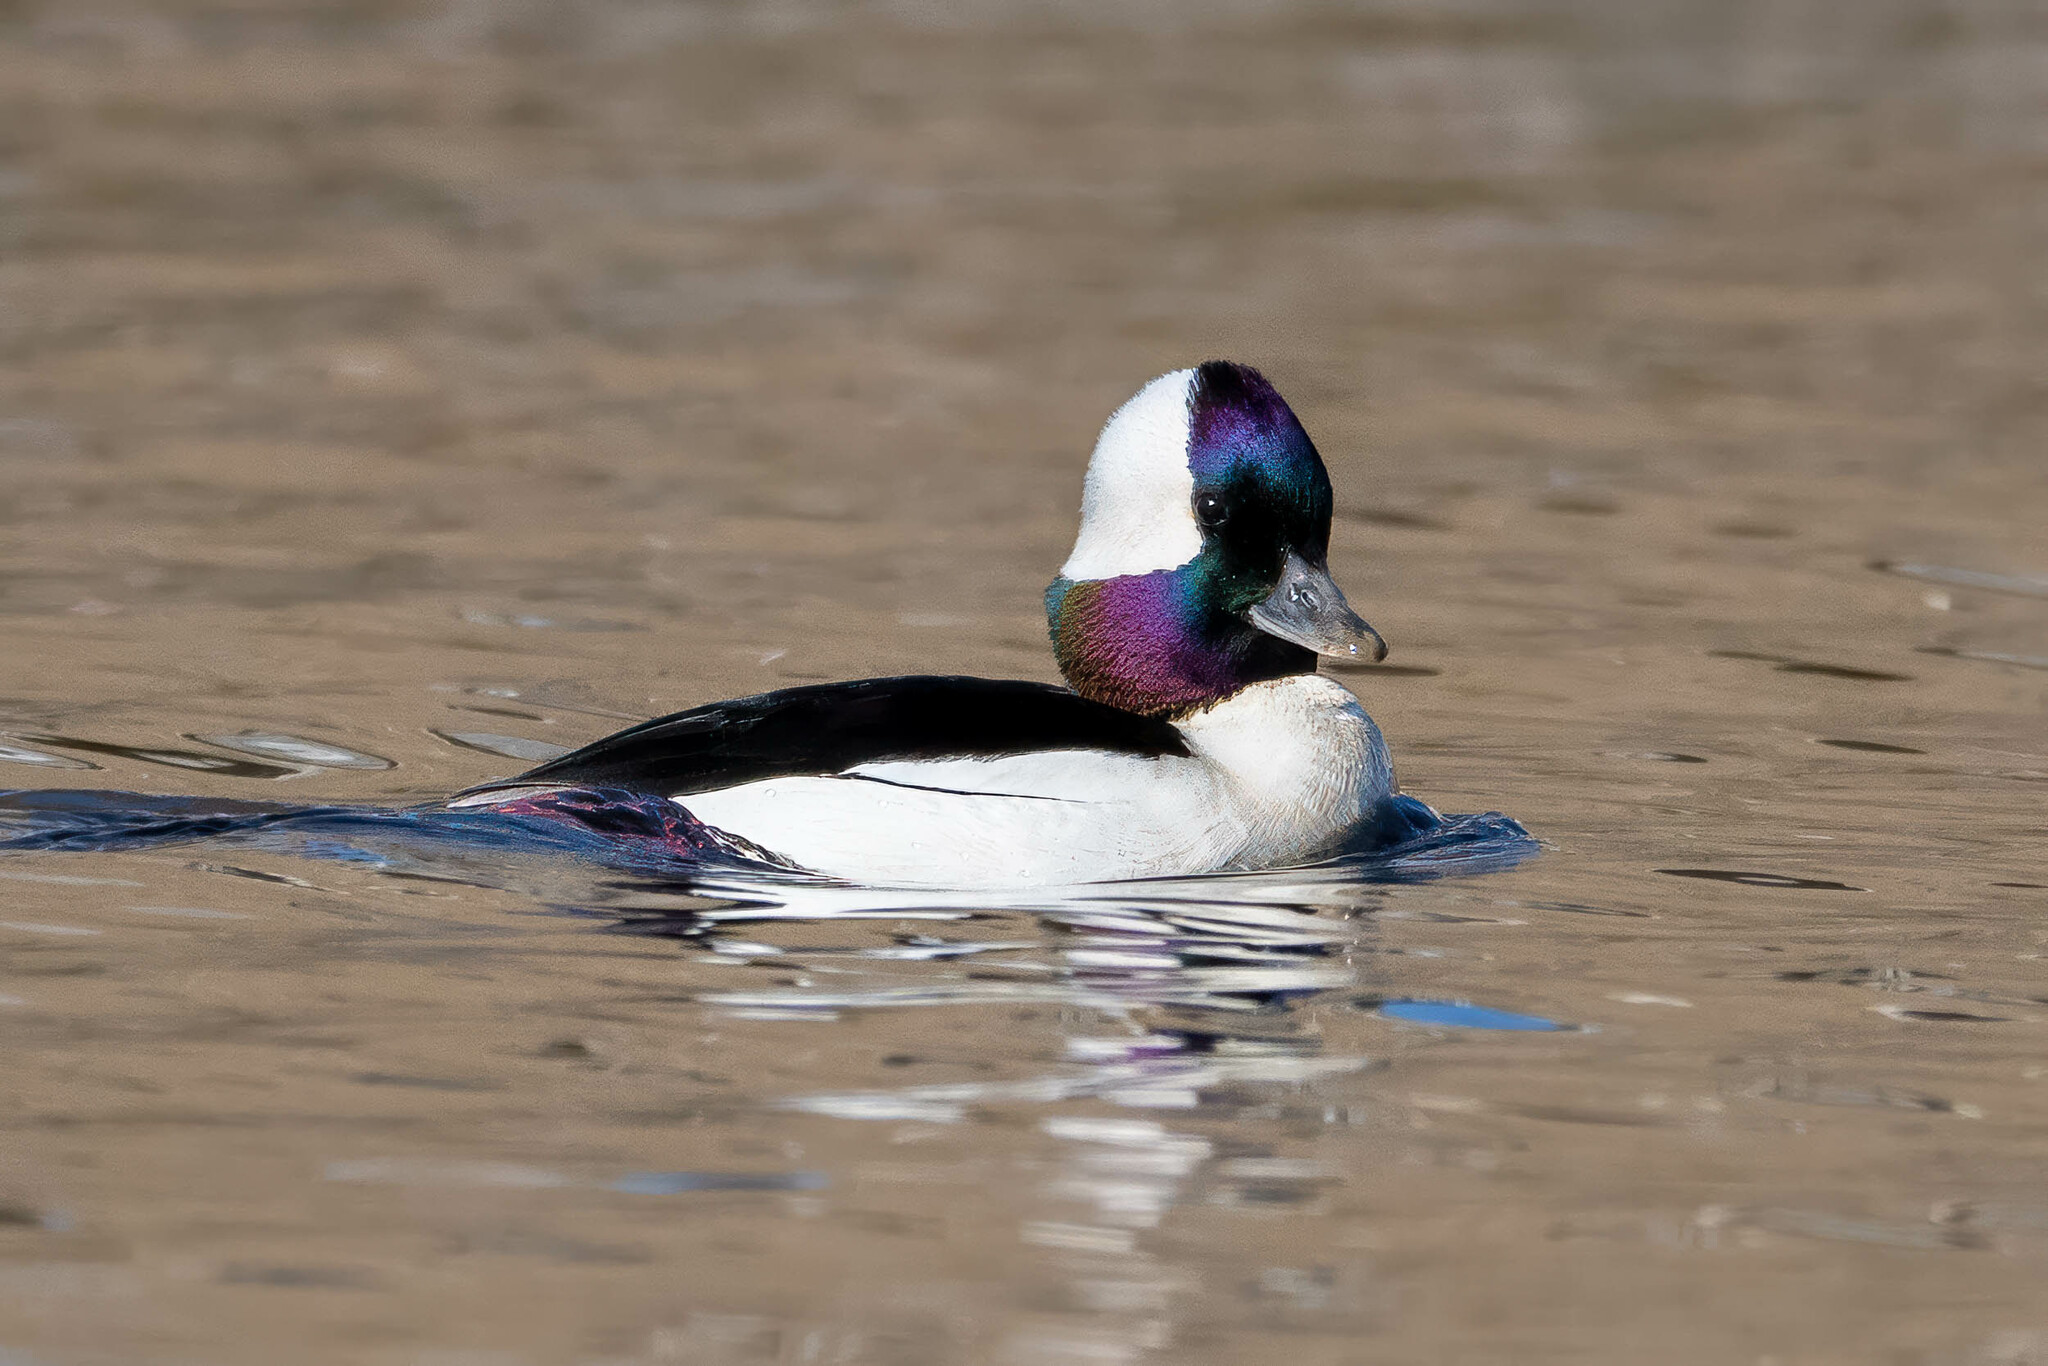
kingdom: Animalia
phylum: Chordata
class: Aves
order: Anseriformes
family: Anatidae
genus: Bucephala
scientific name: Bucephala albeola
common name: Bufflehead
